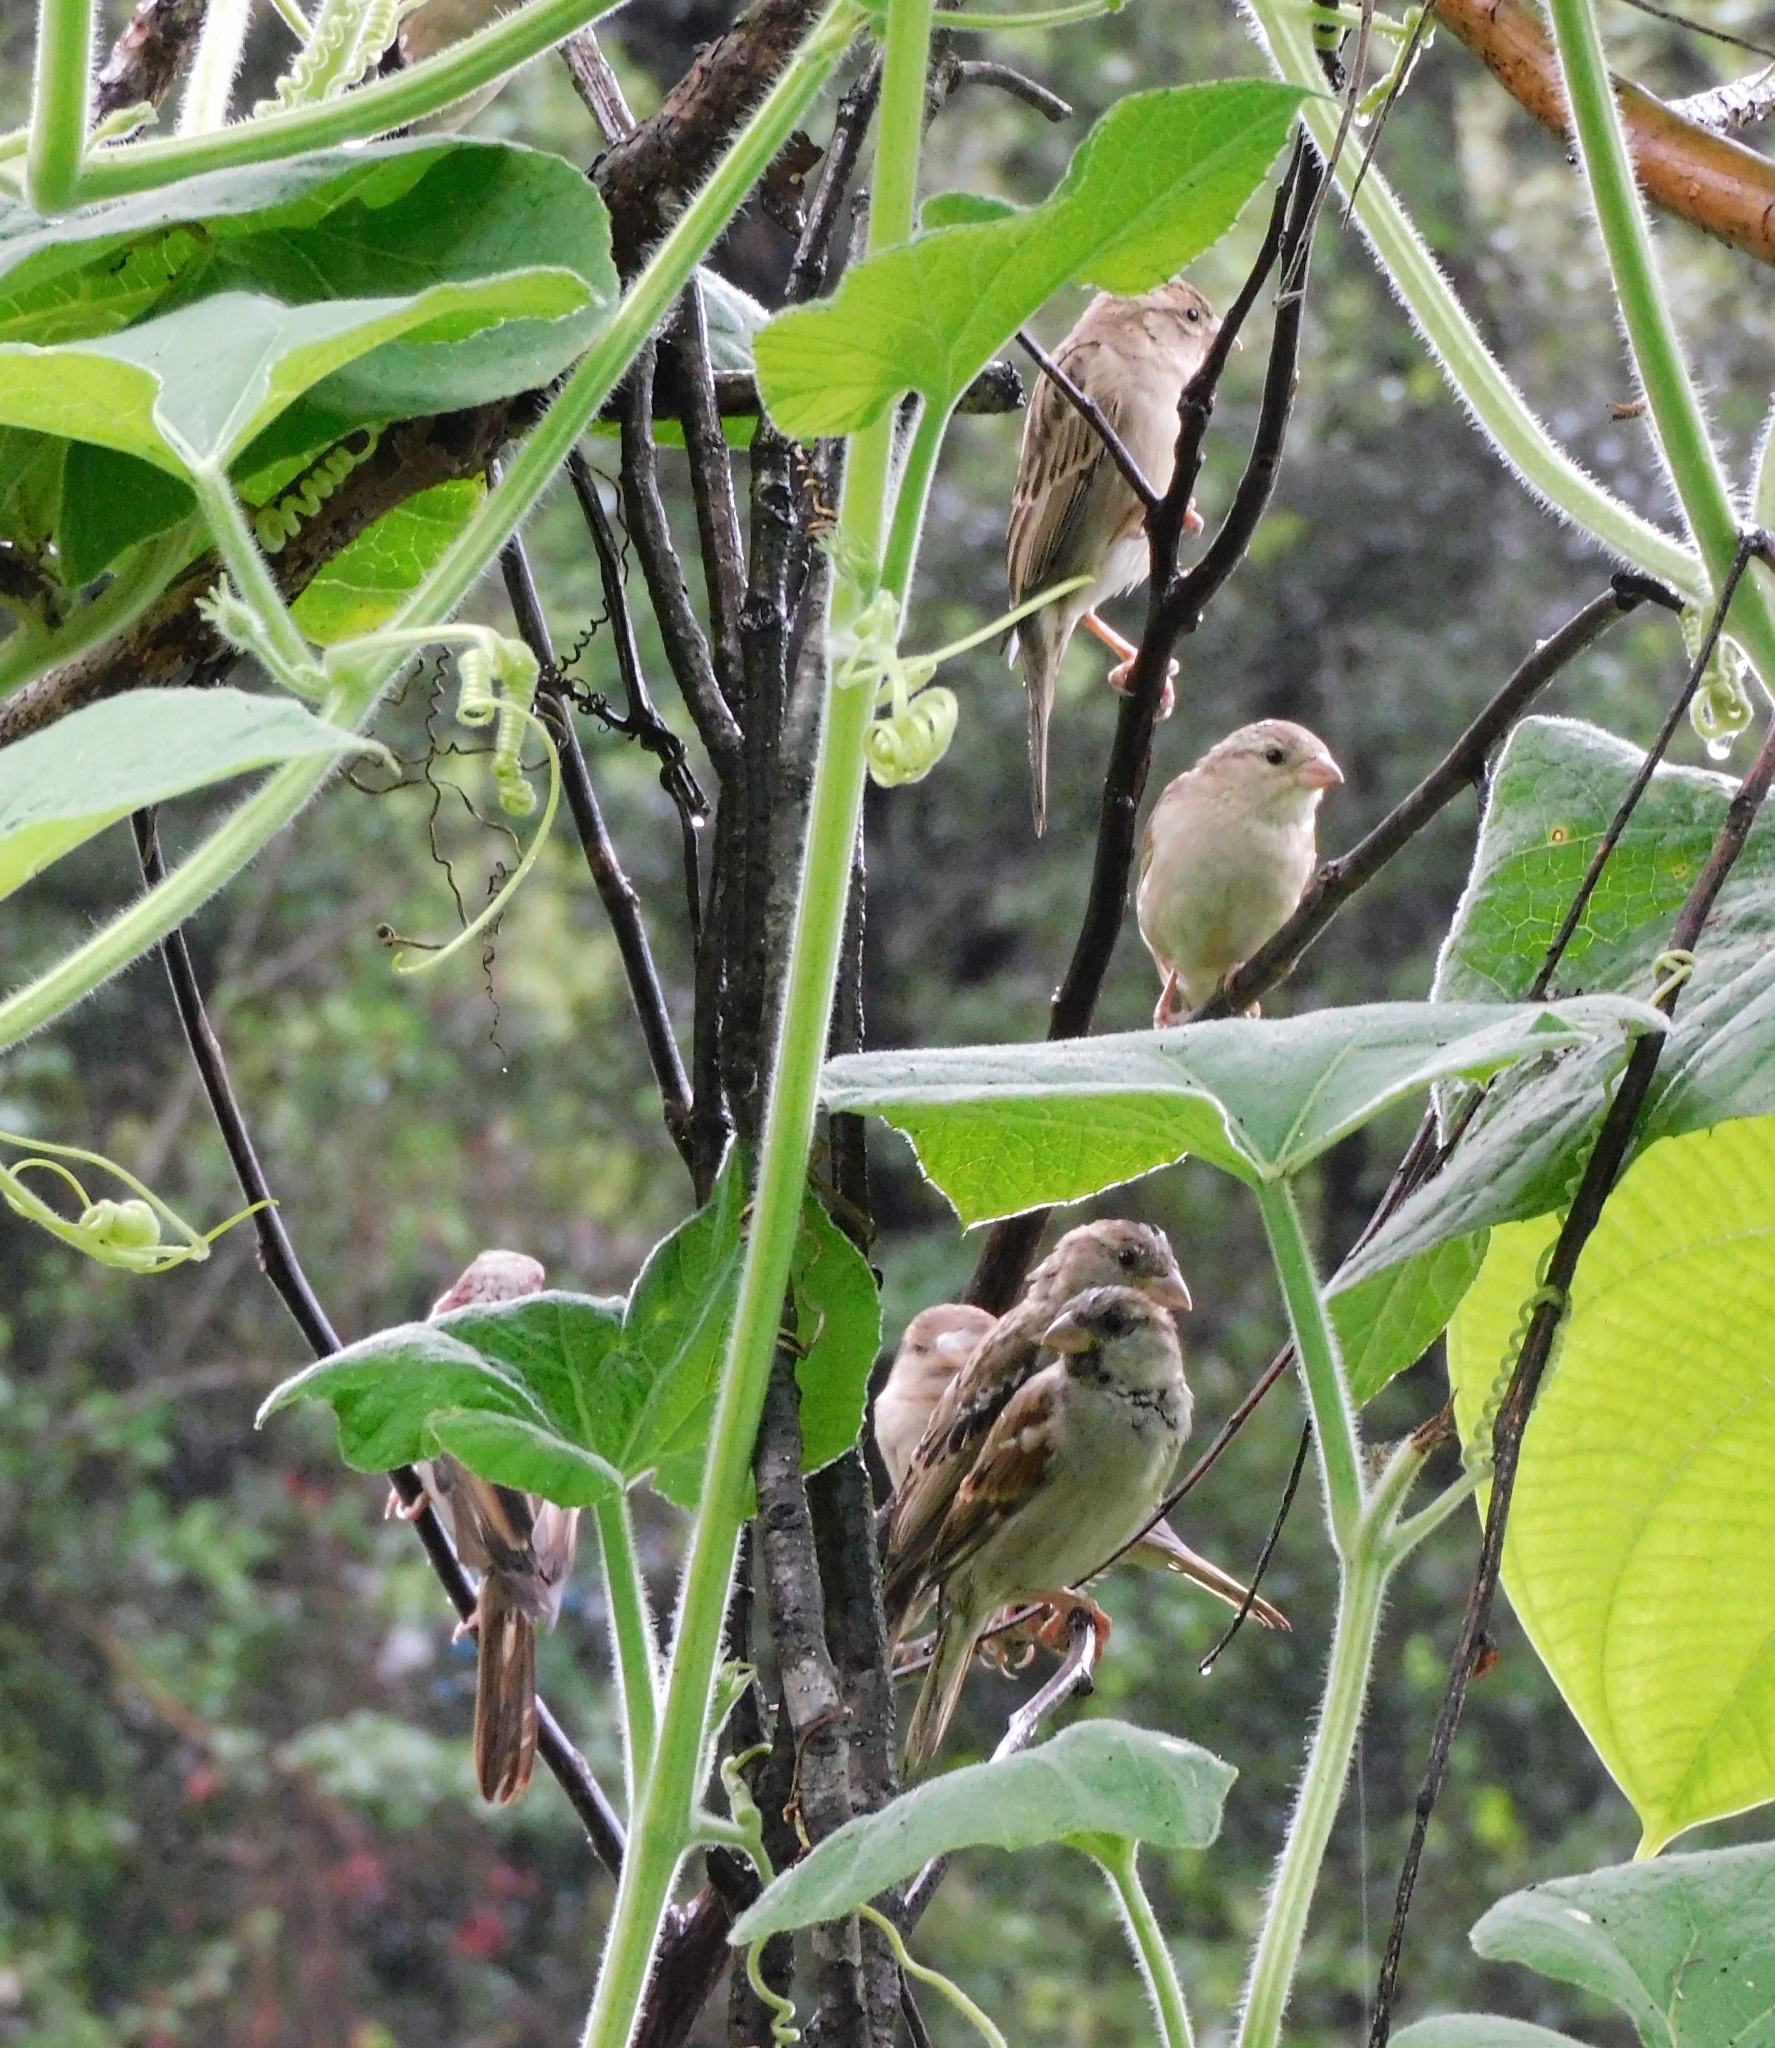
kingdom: Animalia
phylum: Chordata
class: Aves
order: Passeriformes
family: Passeridae
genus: Passer
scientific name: Passer domesticus
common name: House sparrow
